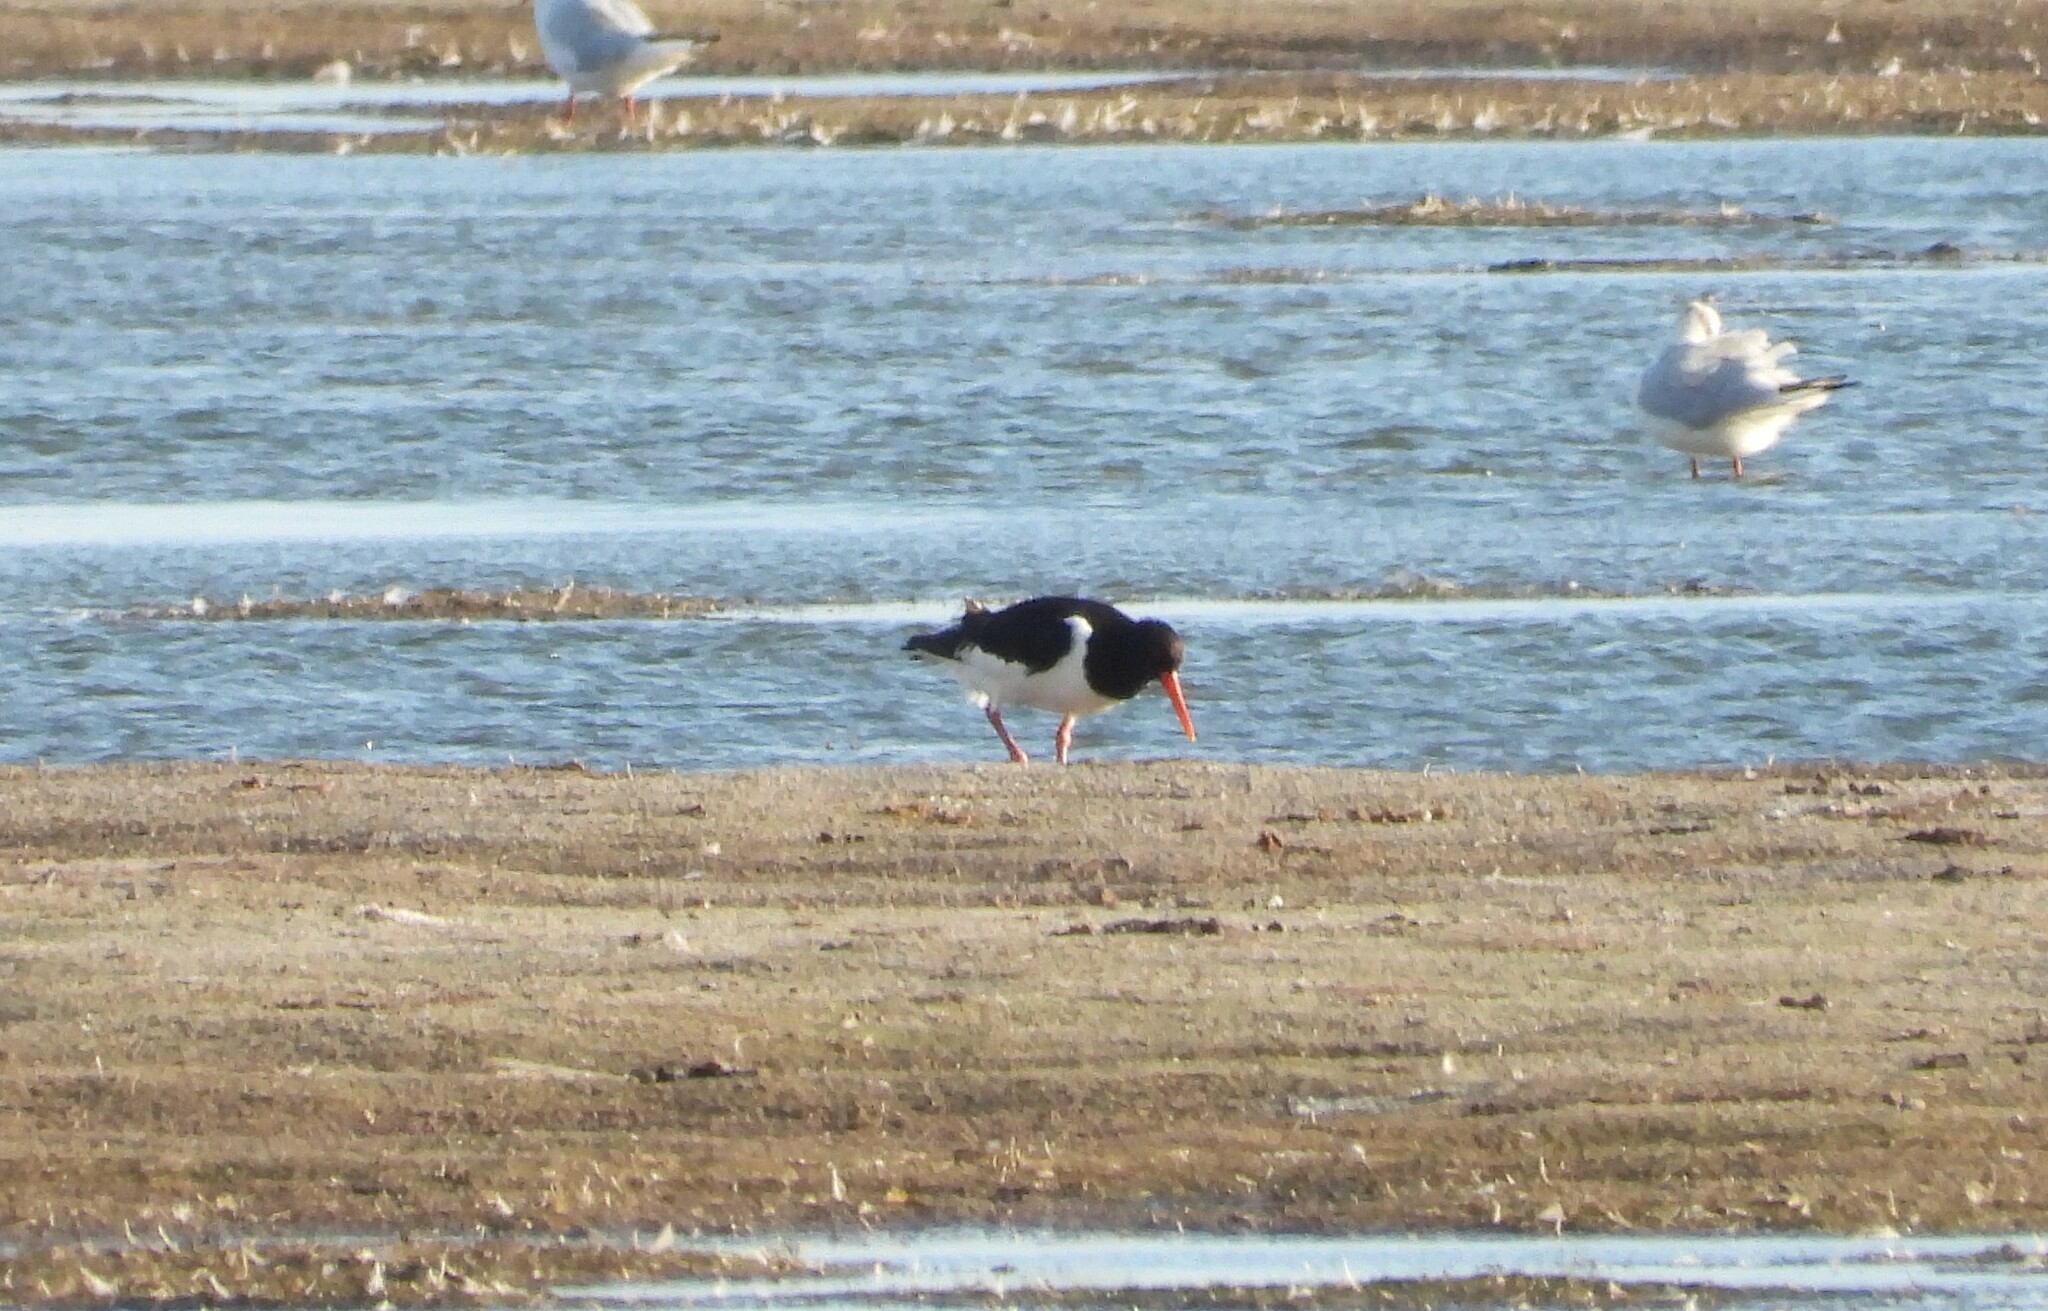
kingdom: Animalia
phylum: Chordata
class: Aves
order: Charadriiformes
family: Haematopodidae
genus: Haematopus
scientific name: Haematopus ostralegus
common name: Eurasian oystercatcher
